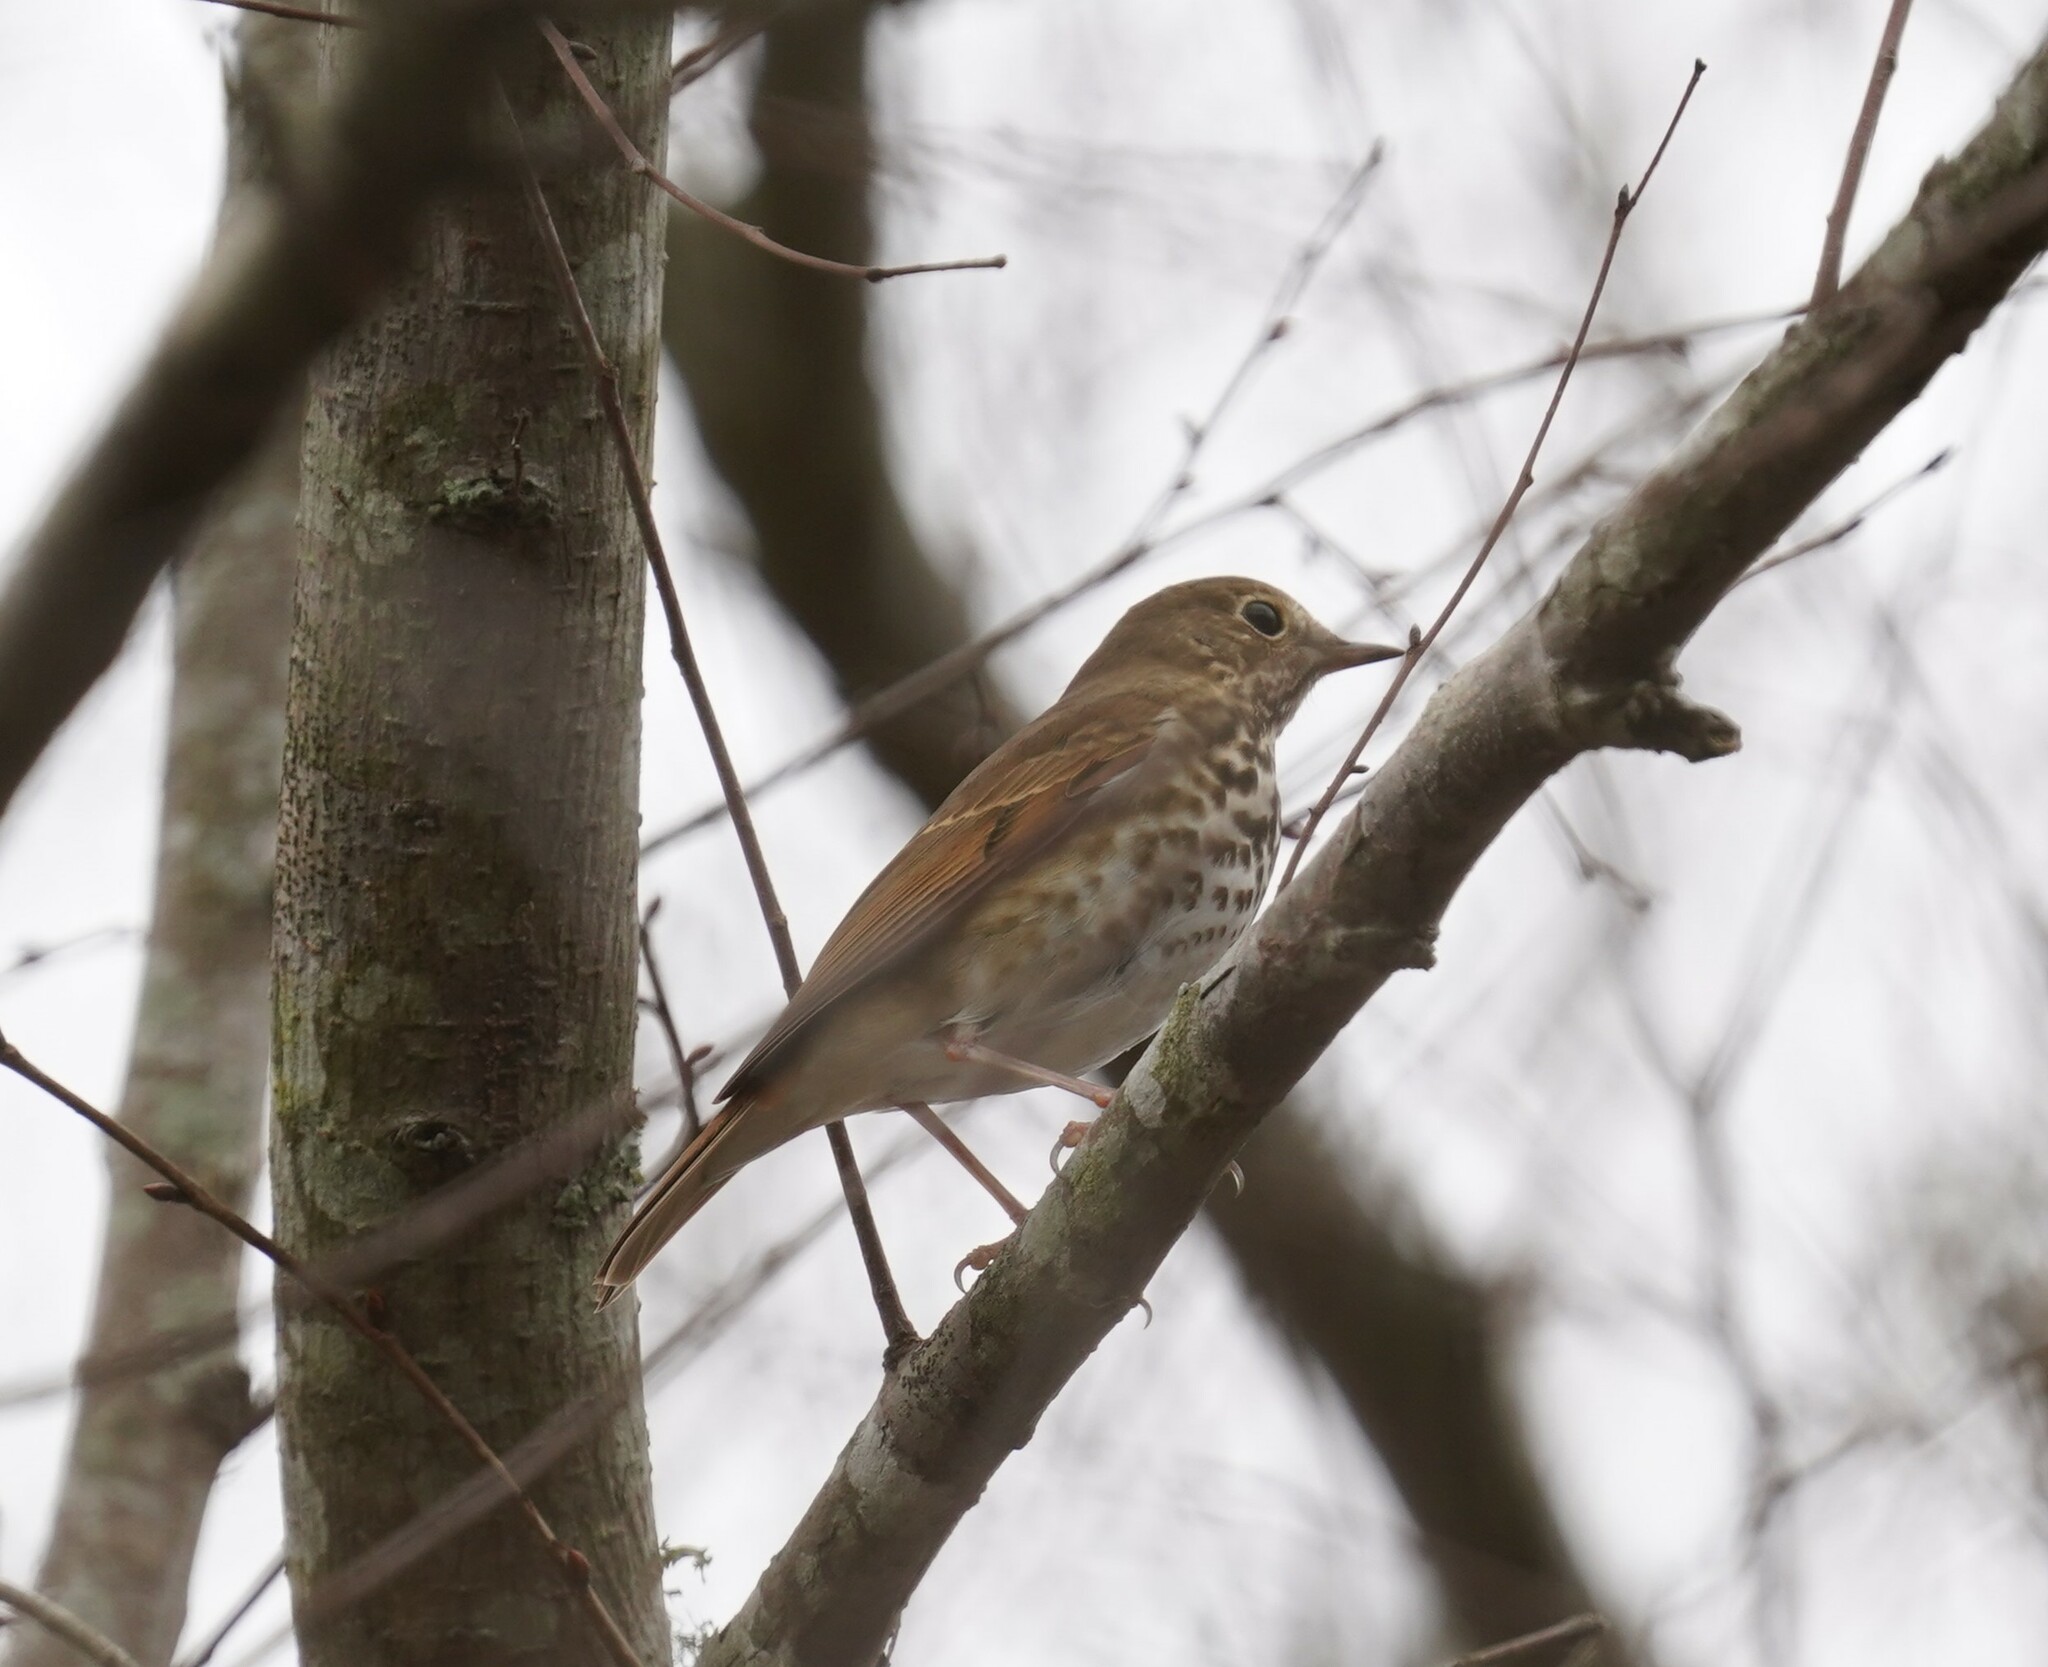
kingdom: Animalia
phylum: Chordata
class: Aves
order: Passeriformes
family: Turdidae
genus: Catharus
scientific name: Catharus guttatus
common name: Hermit thrush
